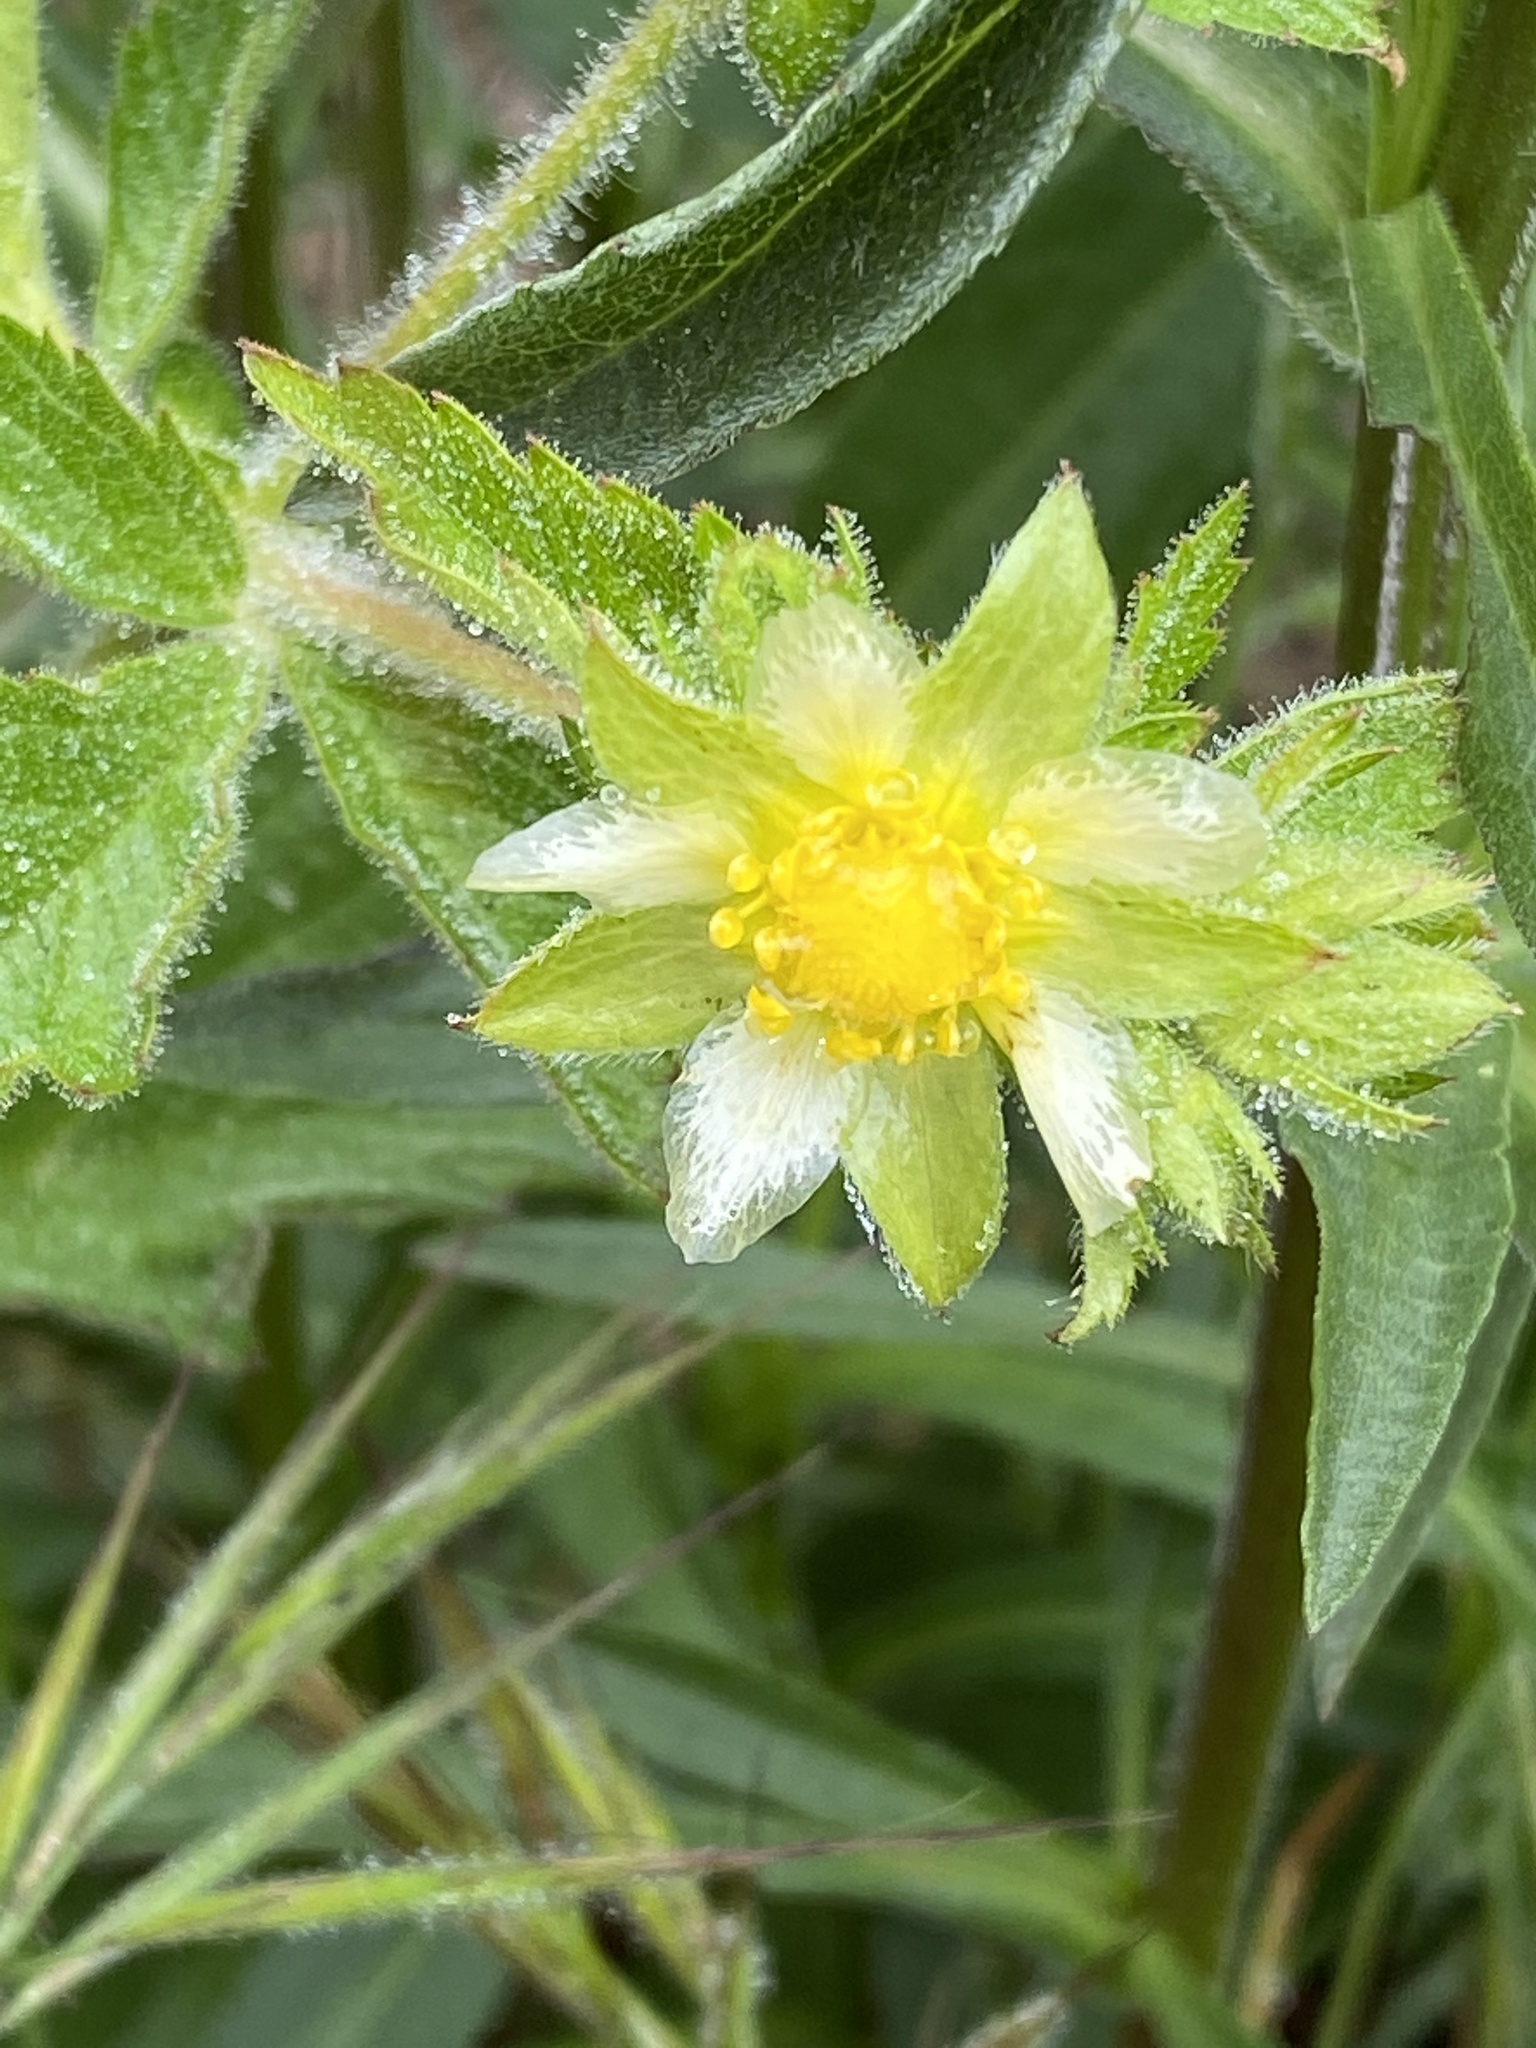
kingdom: Plantae
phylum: Tracheophyta
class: Magnoliopsida
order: Rosales
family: Rosaceae
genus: Drymocallis
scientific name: Drymocallis glandulosa
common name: Sticky cinquefoil
